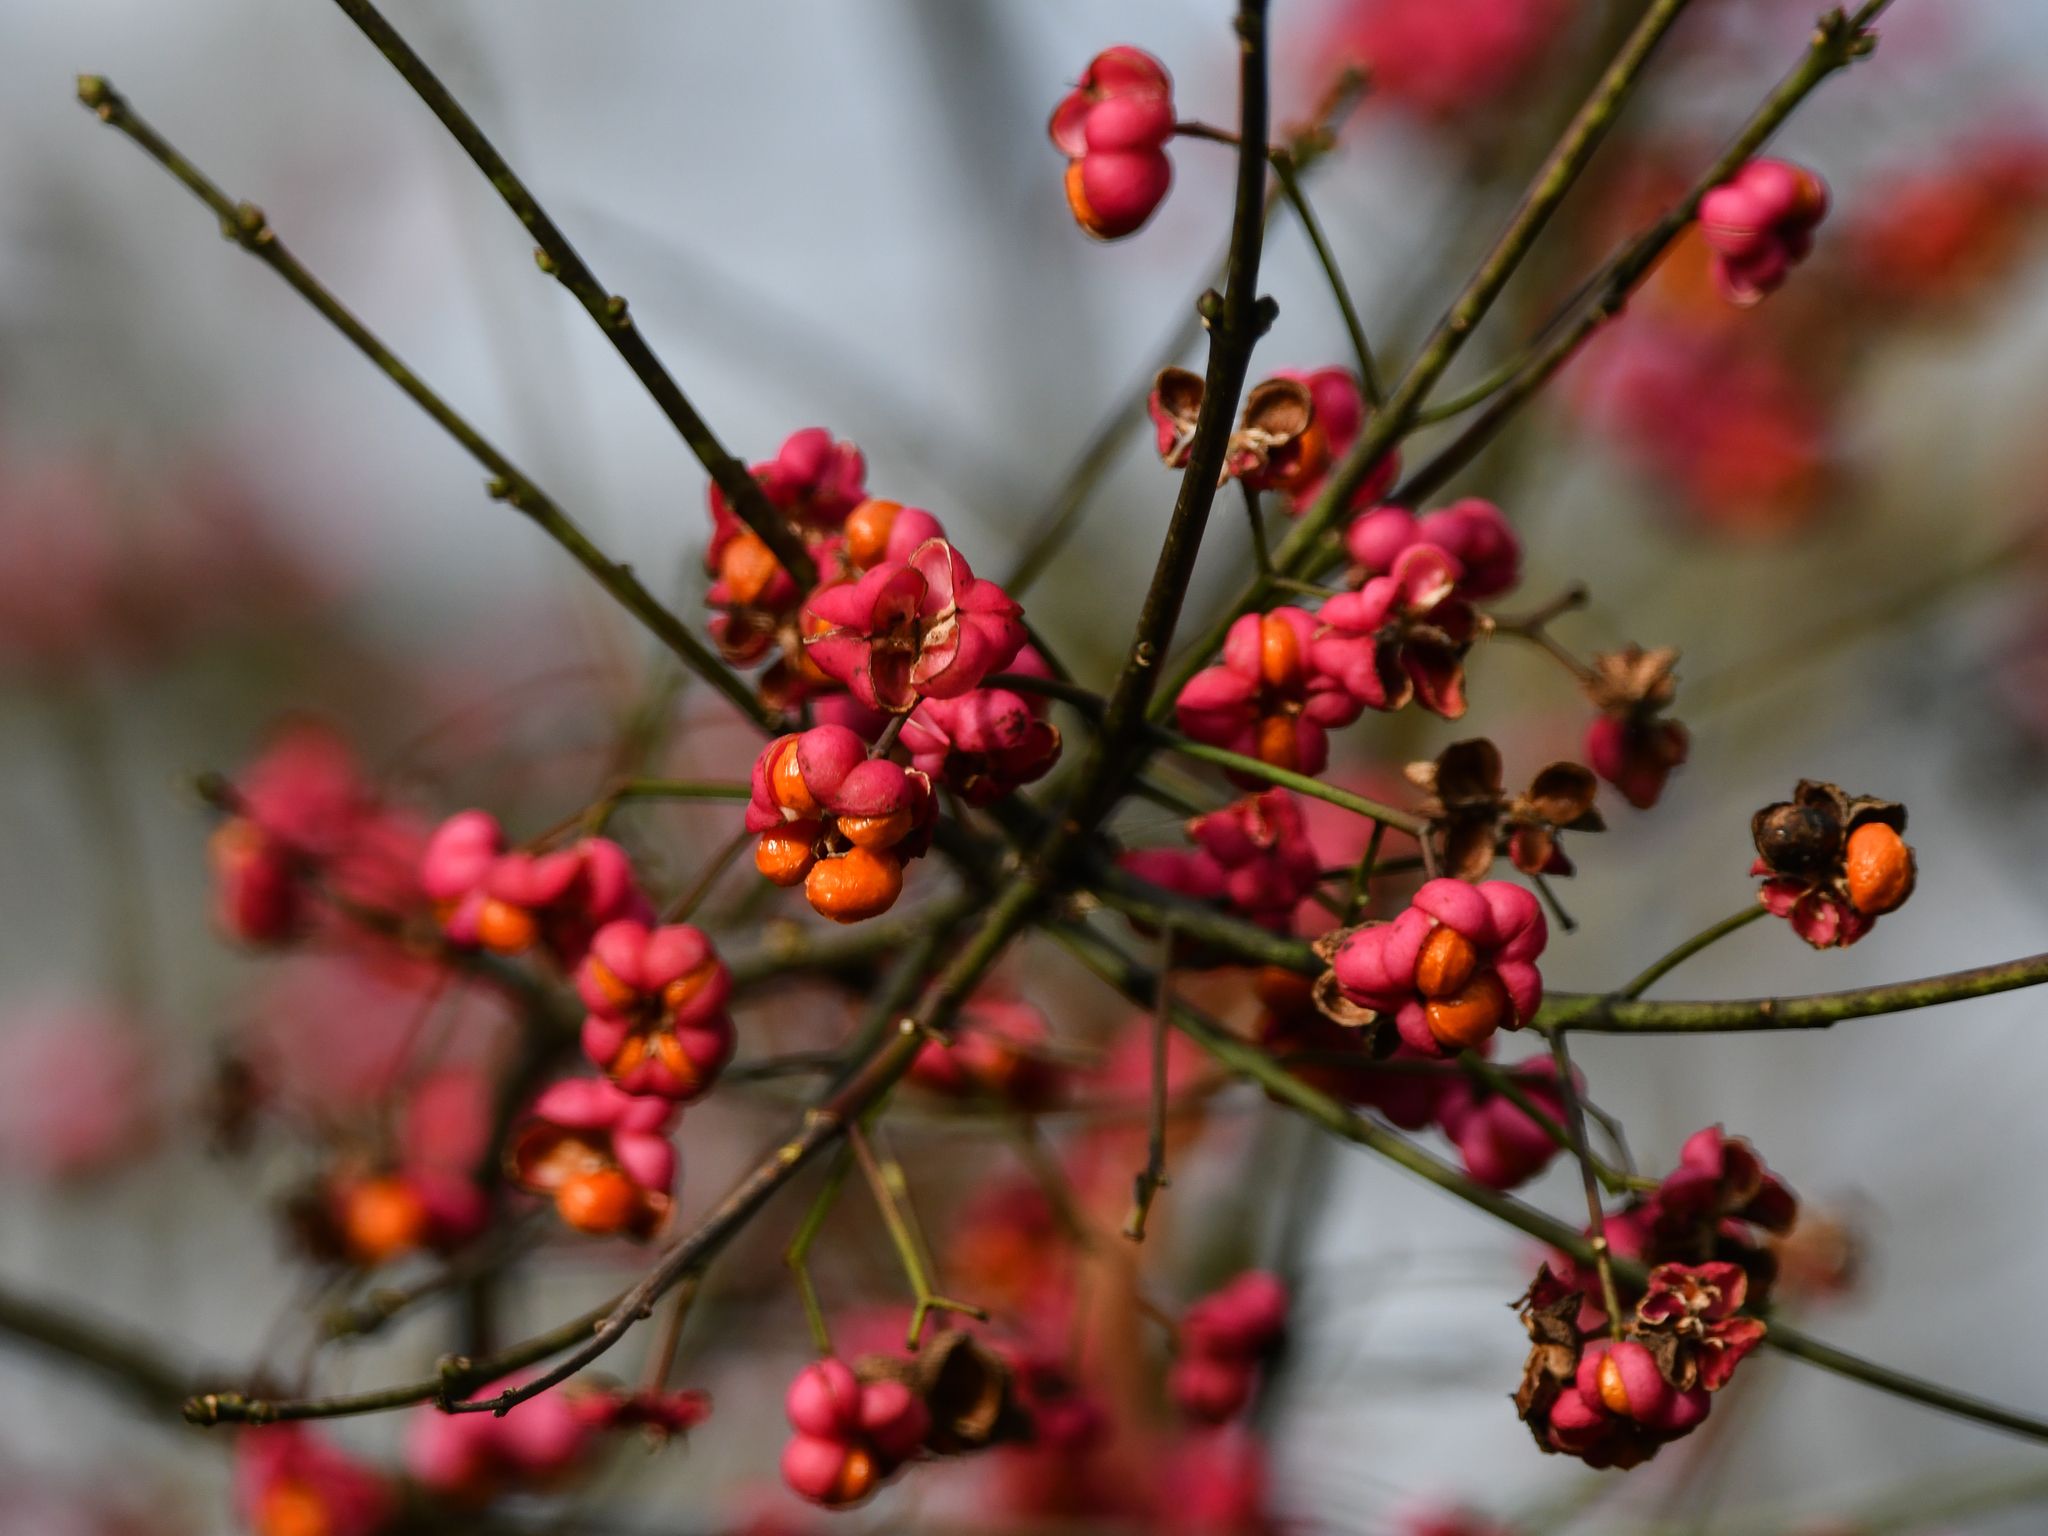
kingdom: Plantae
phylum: Tracheophyta
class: Magnoliopsida
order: Celastrales
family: Celastraceae
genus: Euonymus
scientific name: Euonymus europaeus
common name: Spindle
